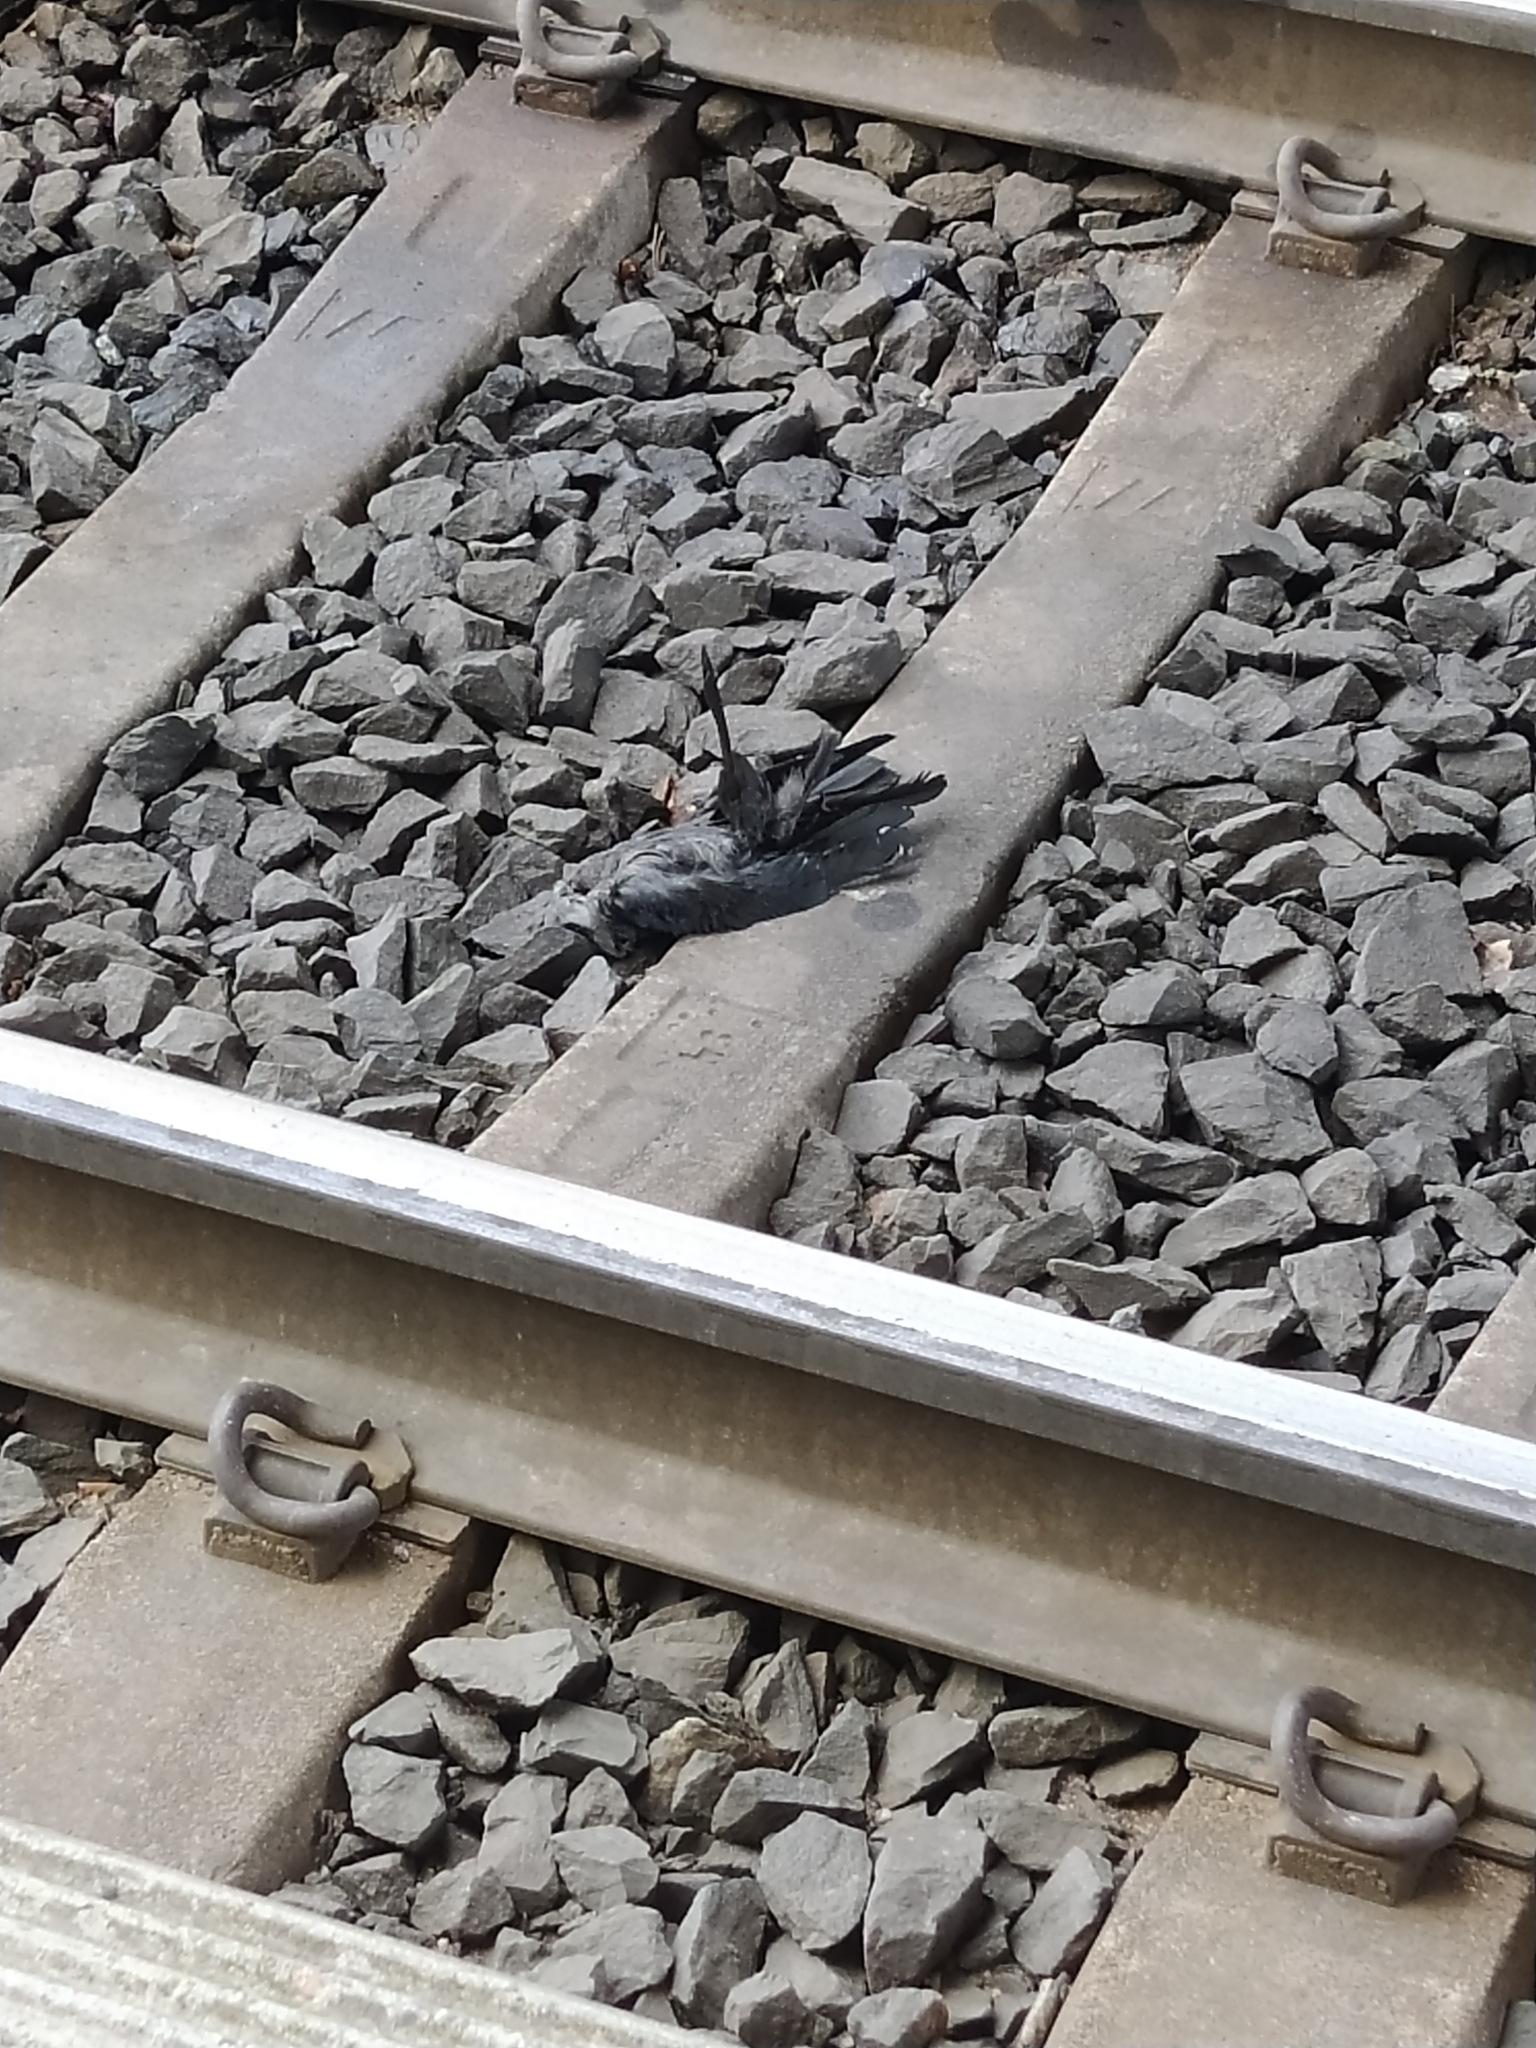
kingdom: Animalia
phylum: Chordata
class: Aves
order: Passeriformes
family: Corvidae
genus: Coloeus
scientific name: Coloeus monedula
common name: Western jackdaw
